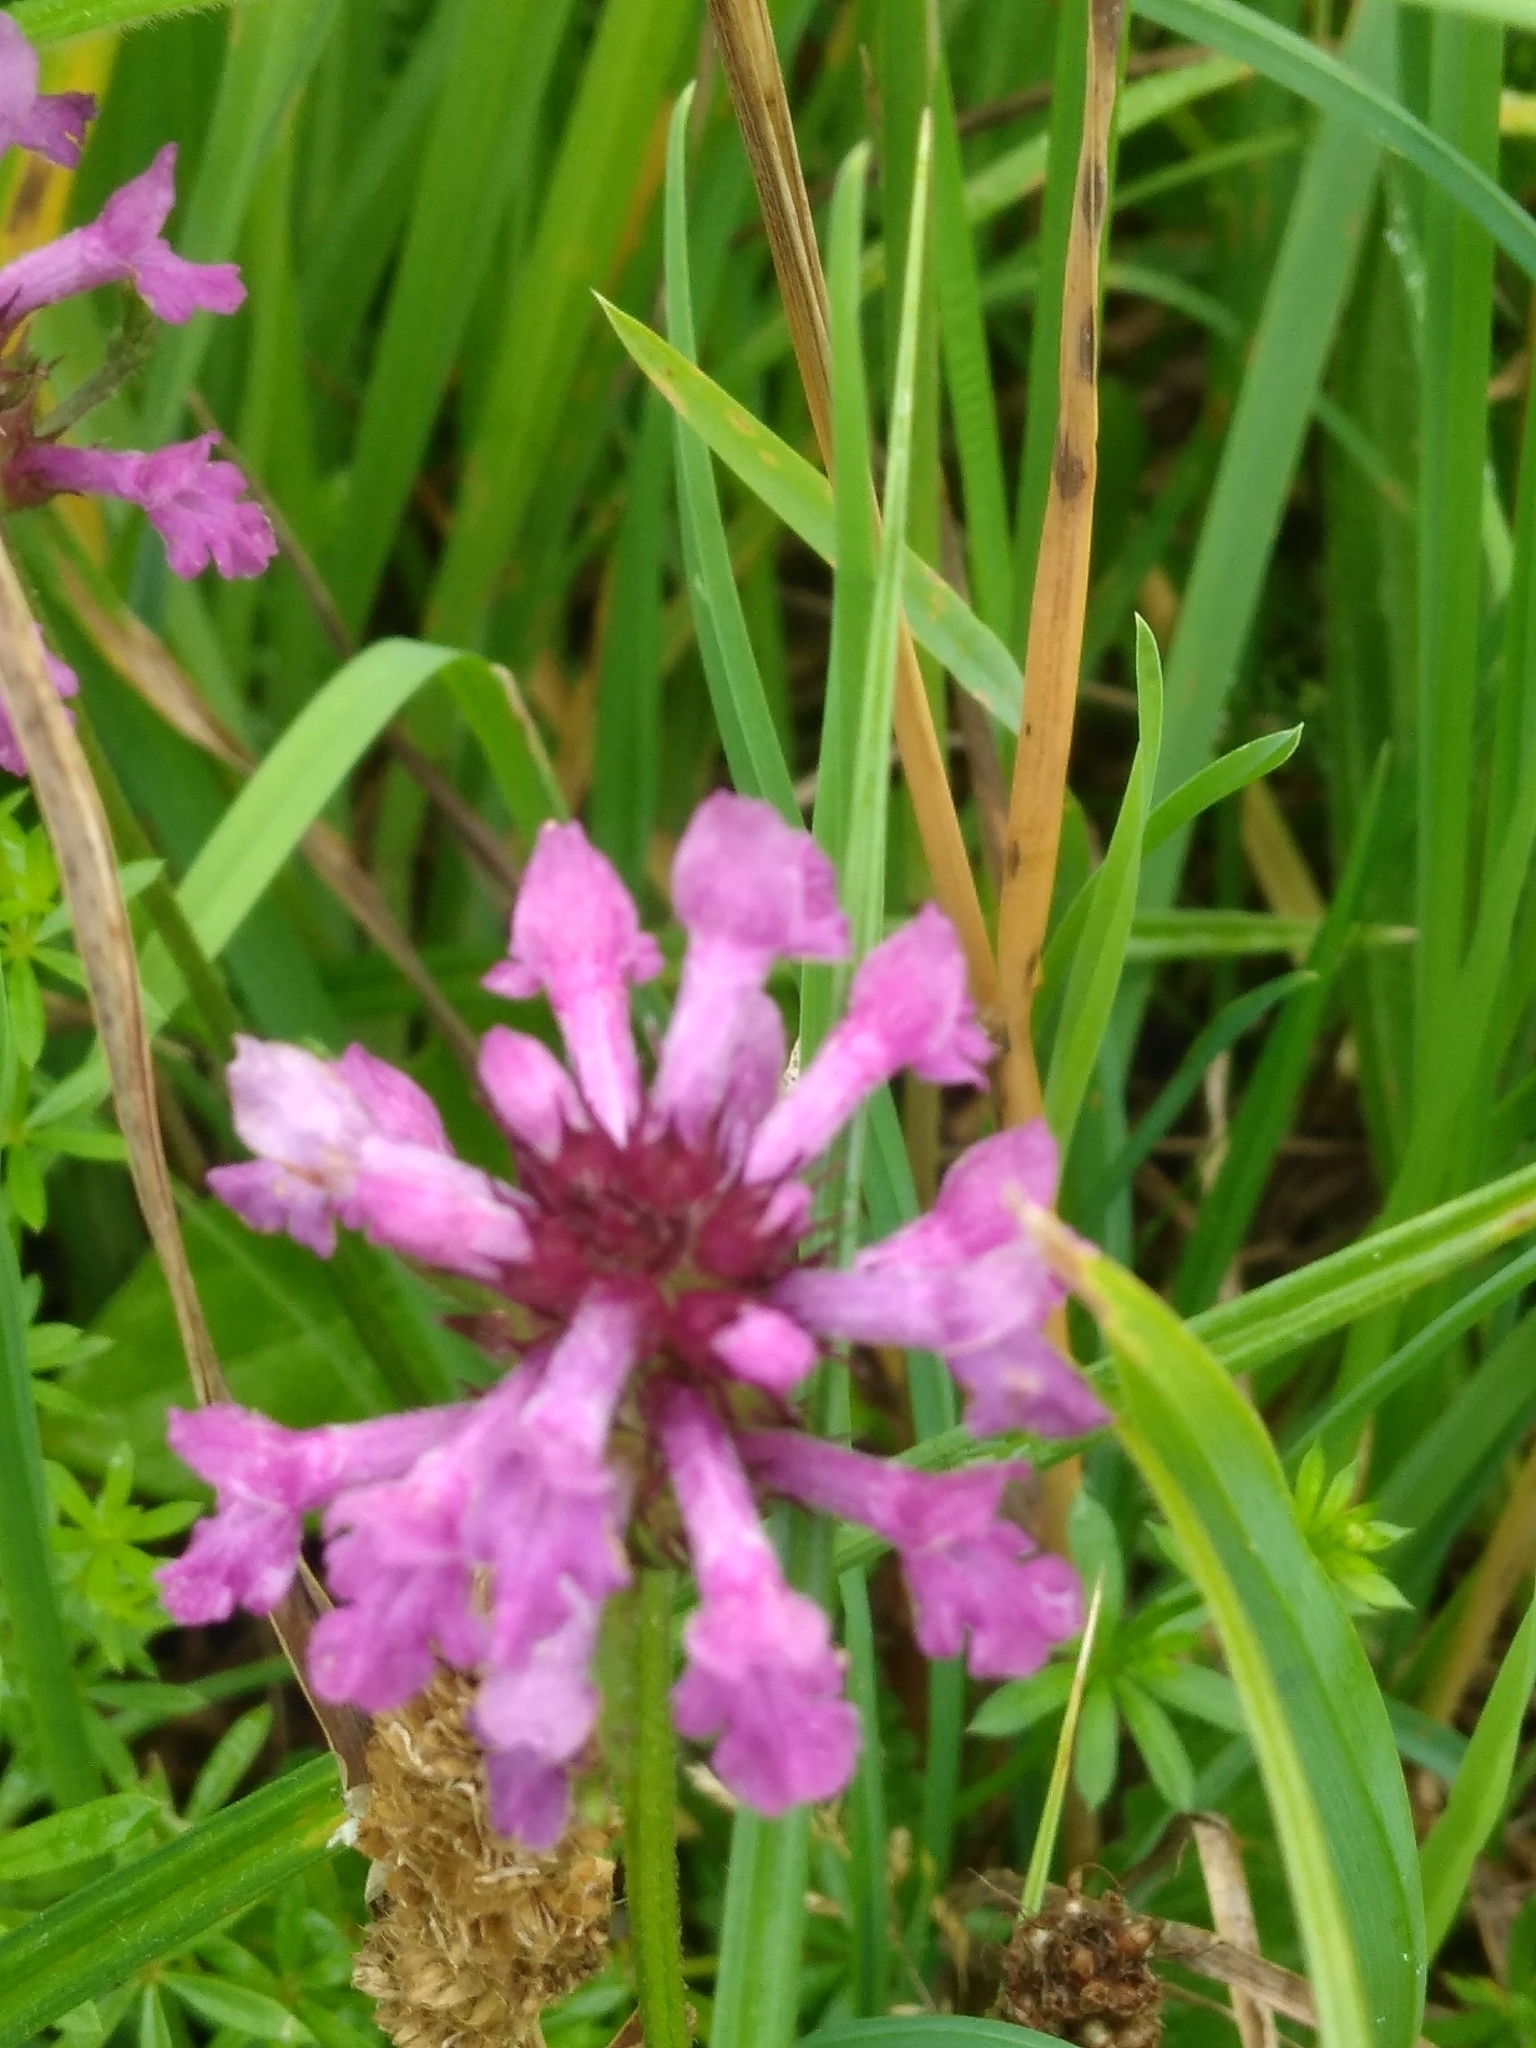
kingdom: Plantae
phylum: Tracheophyta
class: Magnoliopsida
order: Lamiales
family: Lamiaceae
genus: Betonica
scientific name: Betonica officinalis
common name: Bishop's-wort
